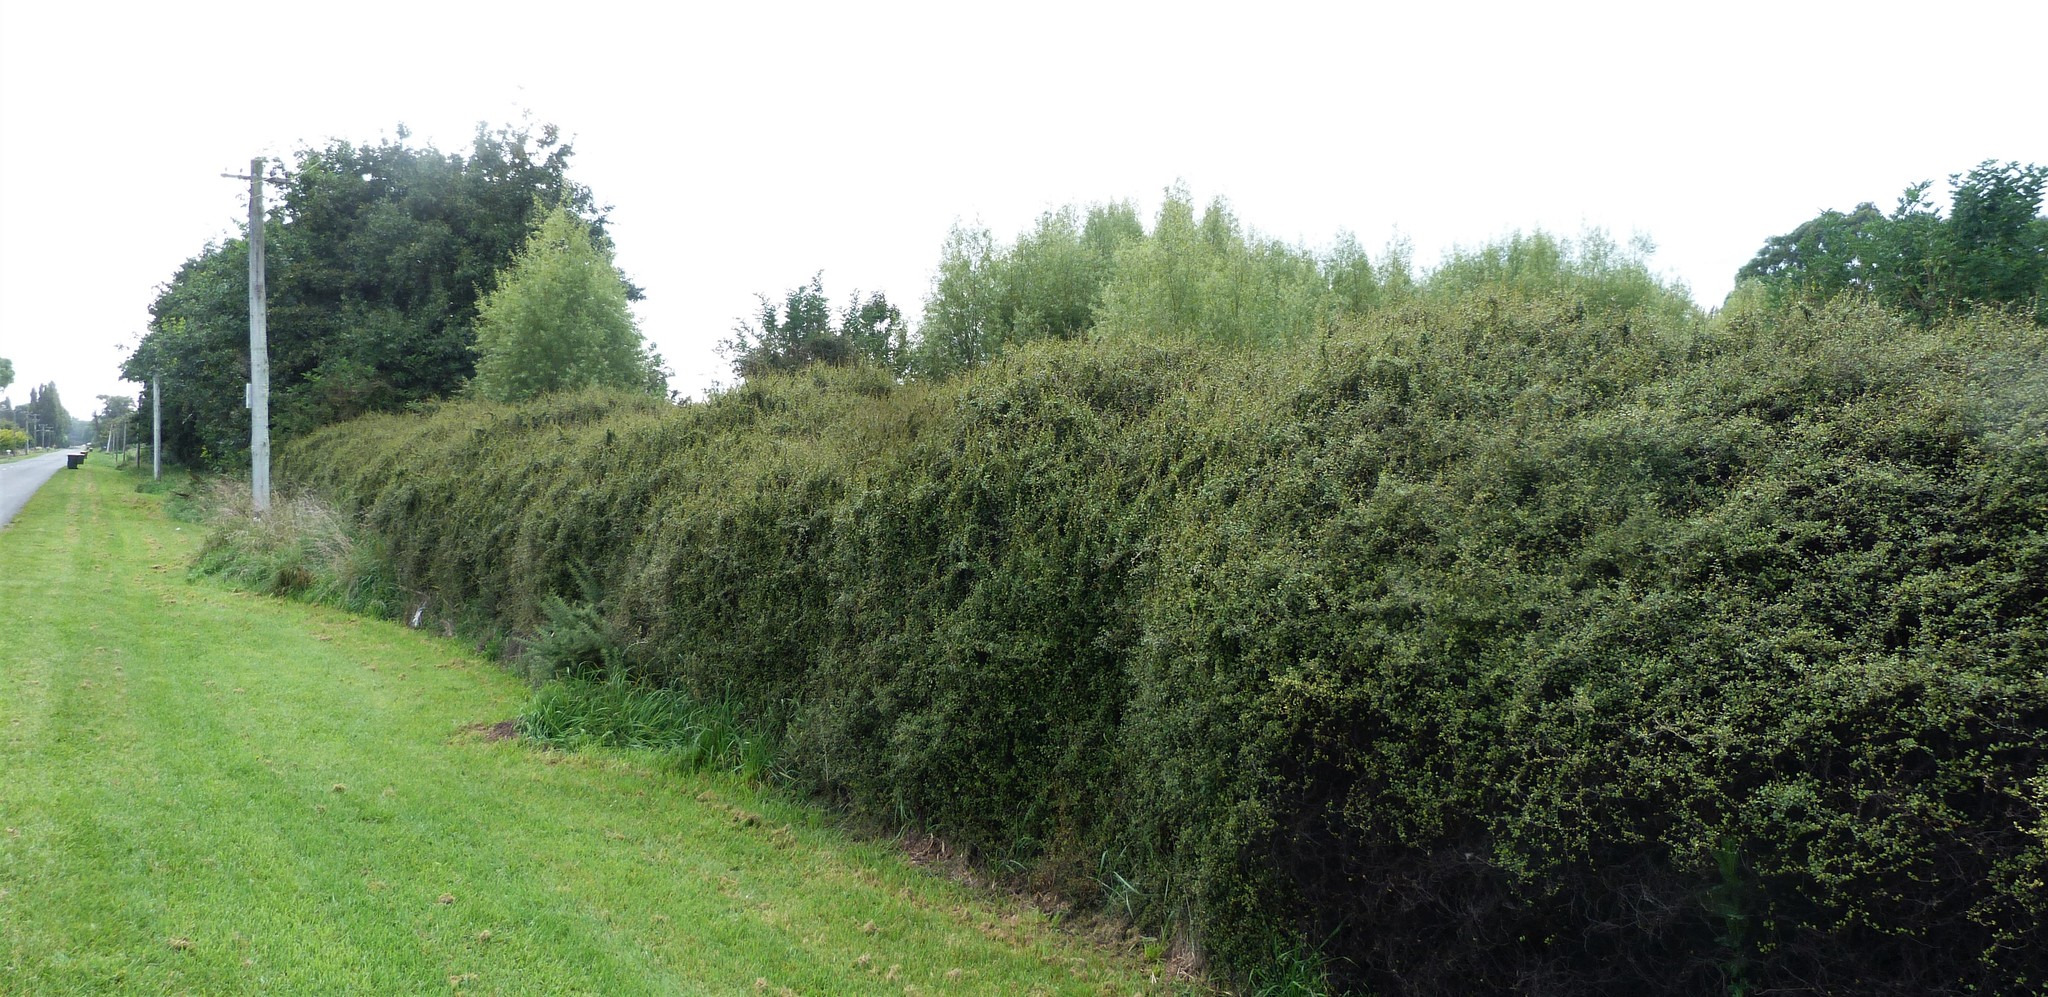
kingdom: Plantae
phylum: Tracheophyta
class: Magnoliopsida
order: Caryophyllales
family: Polygonaceae
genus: Muehlenbeckia
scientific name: Muehlenbeckia complexa
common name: Wireplant
